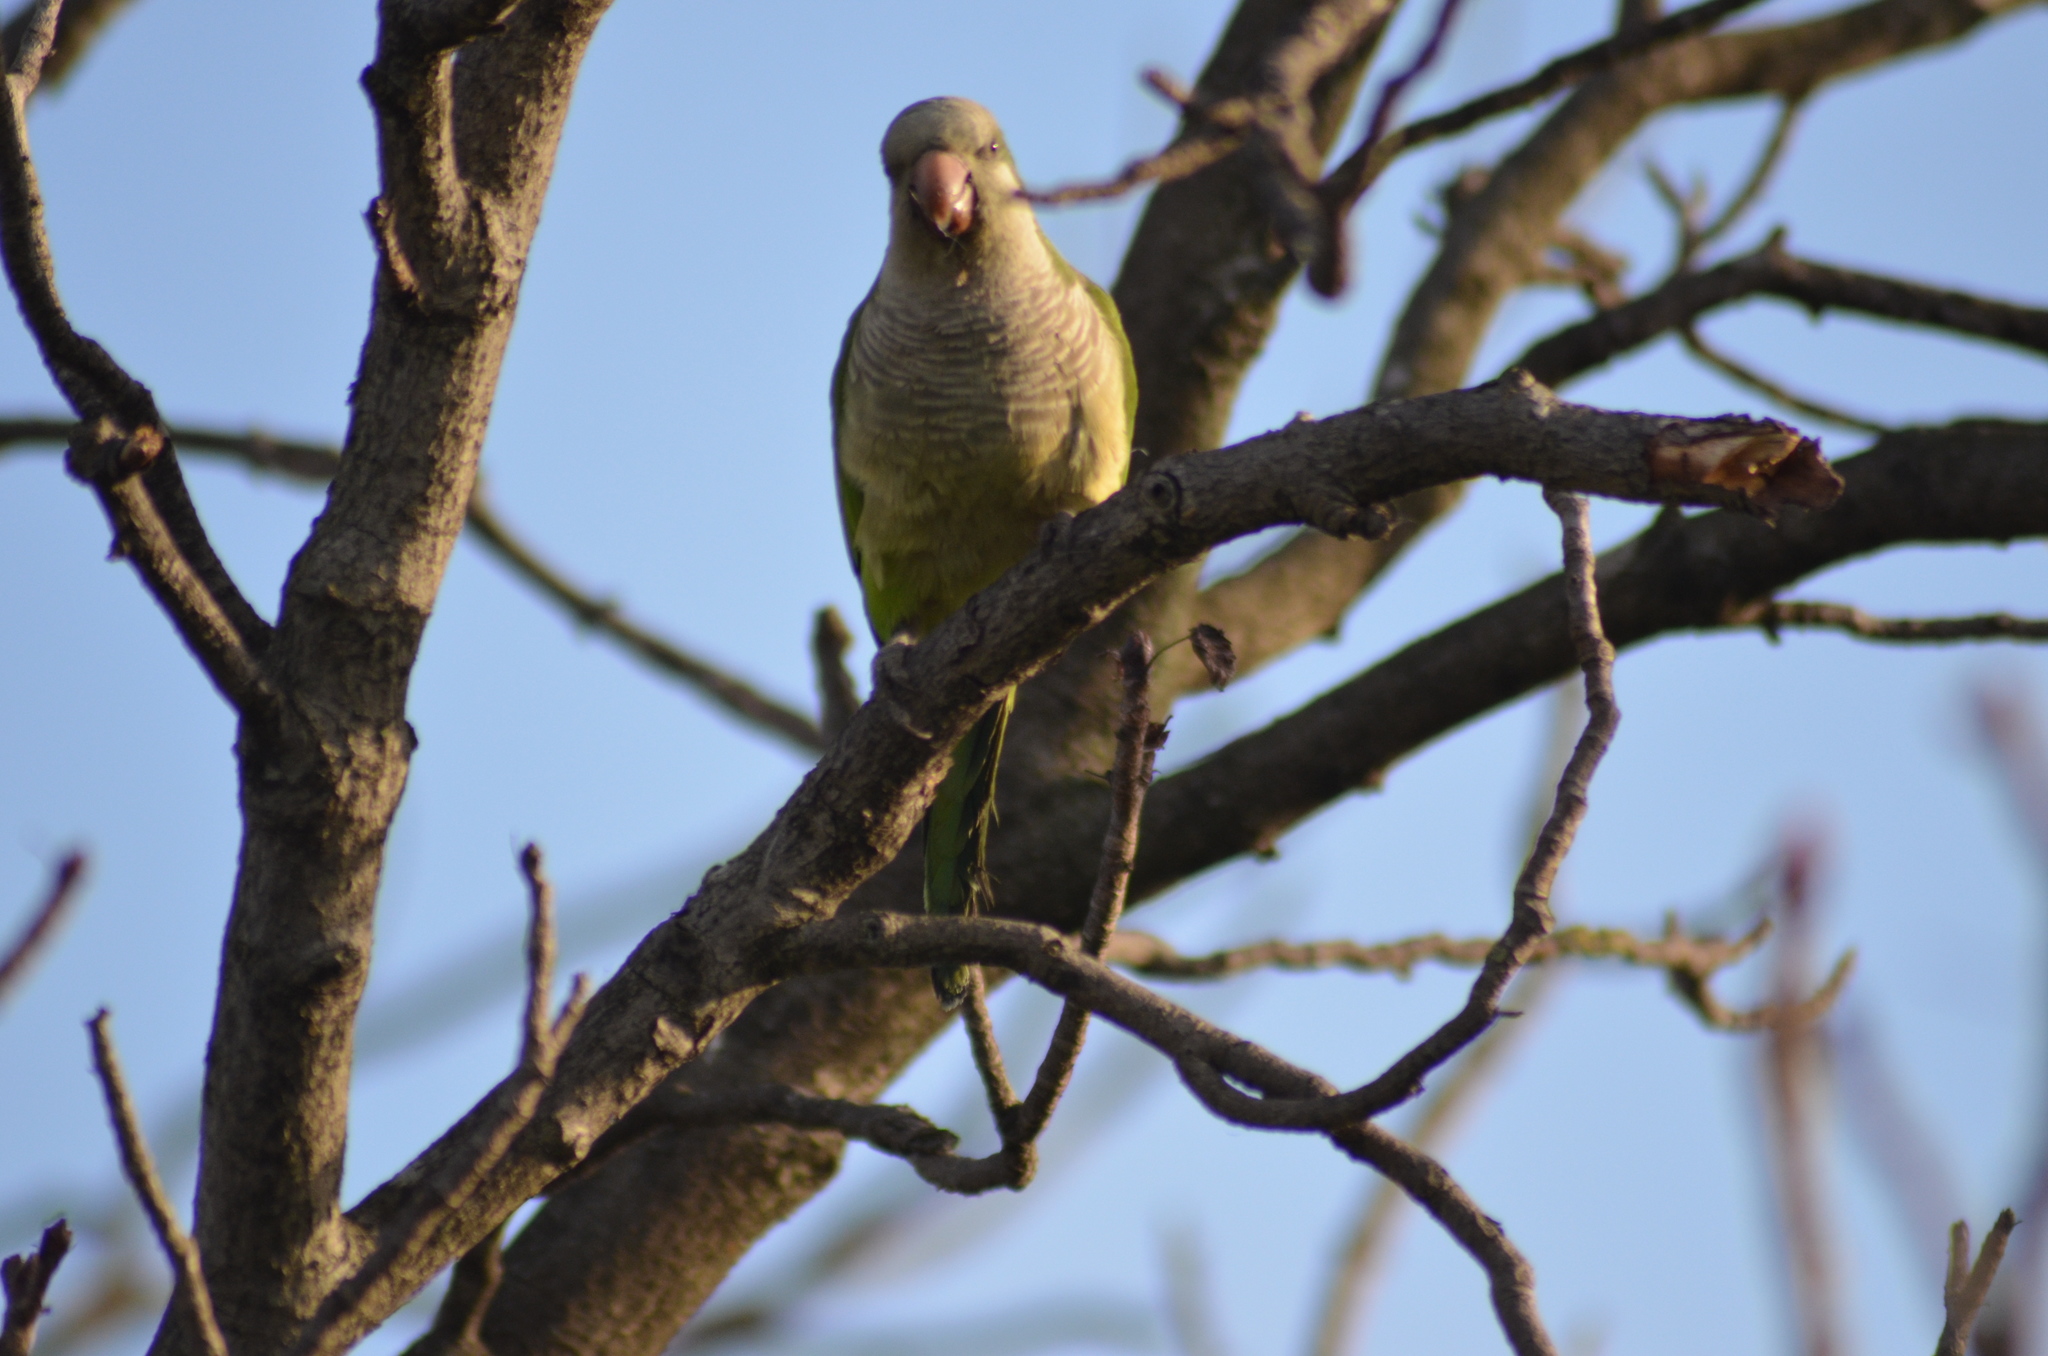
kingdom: Animalia
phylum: Chordata
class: Aves
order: Psittaciformes
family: Psittacidae
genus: Myiopsitta
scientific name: Myiopsitta monachus
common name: Monk parakeet
